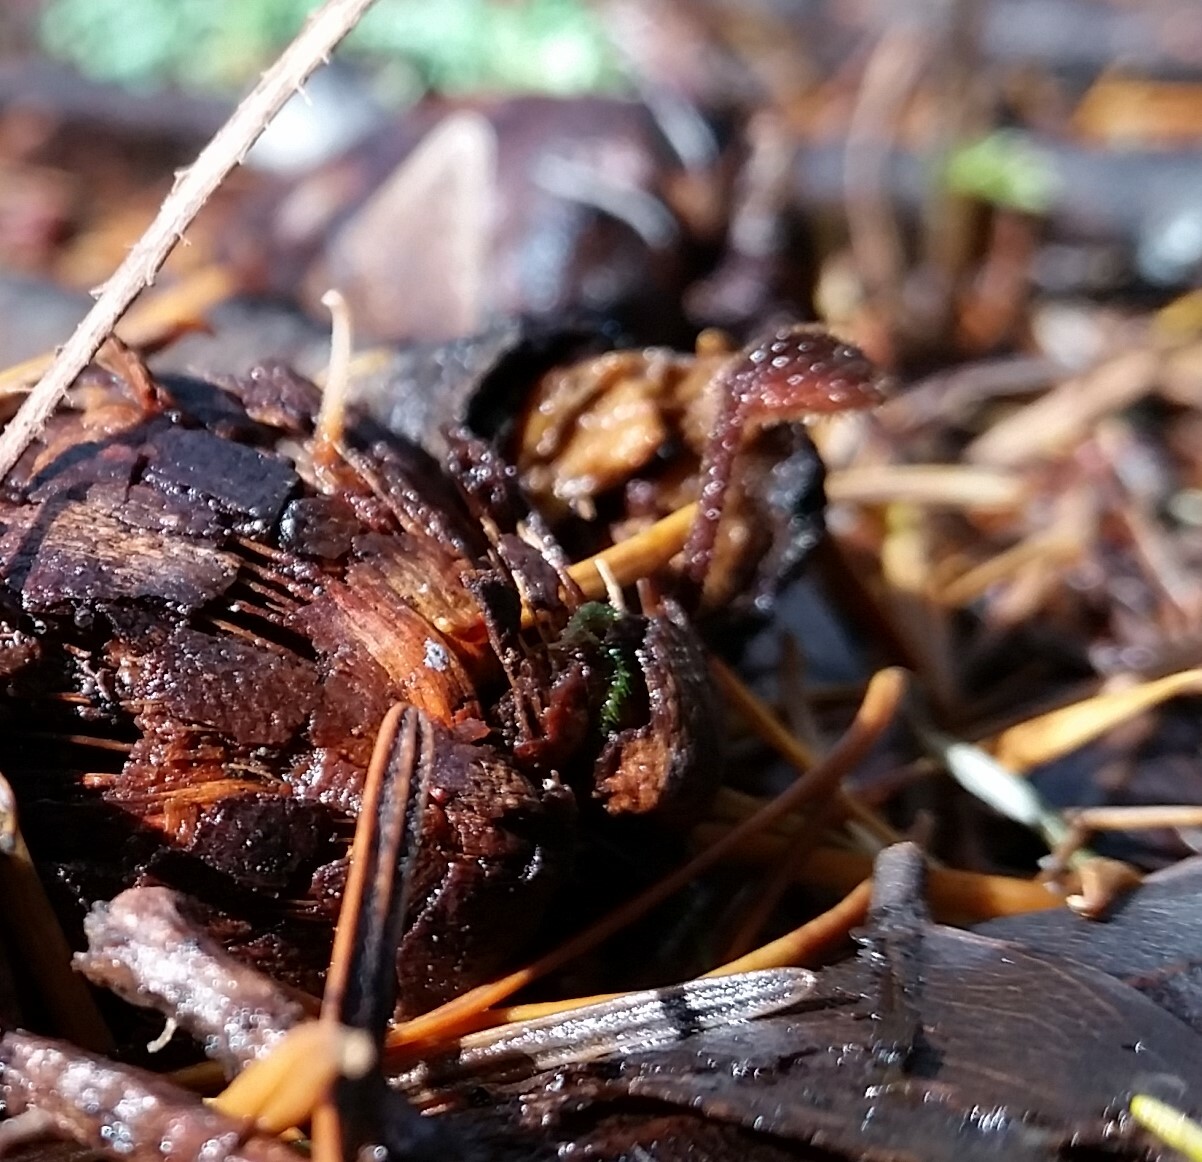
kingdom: Fungi
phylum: Basidiomycota
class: Agaricomycetes
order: Russulales
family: Auriscalpiaceae
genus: Auriscalpium
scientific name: Auriscalpium vulgare
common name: Earpick fungus
